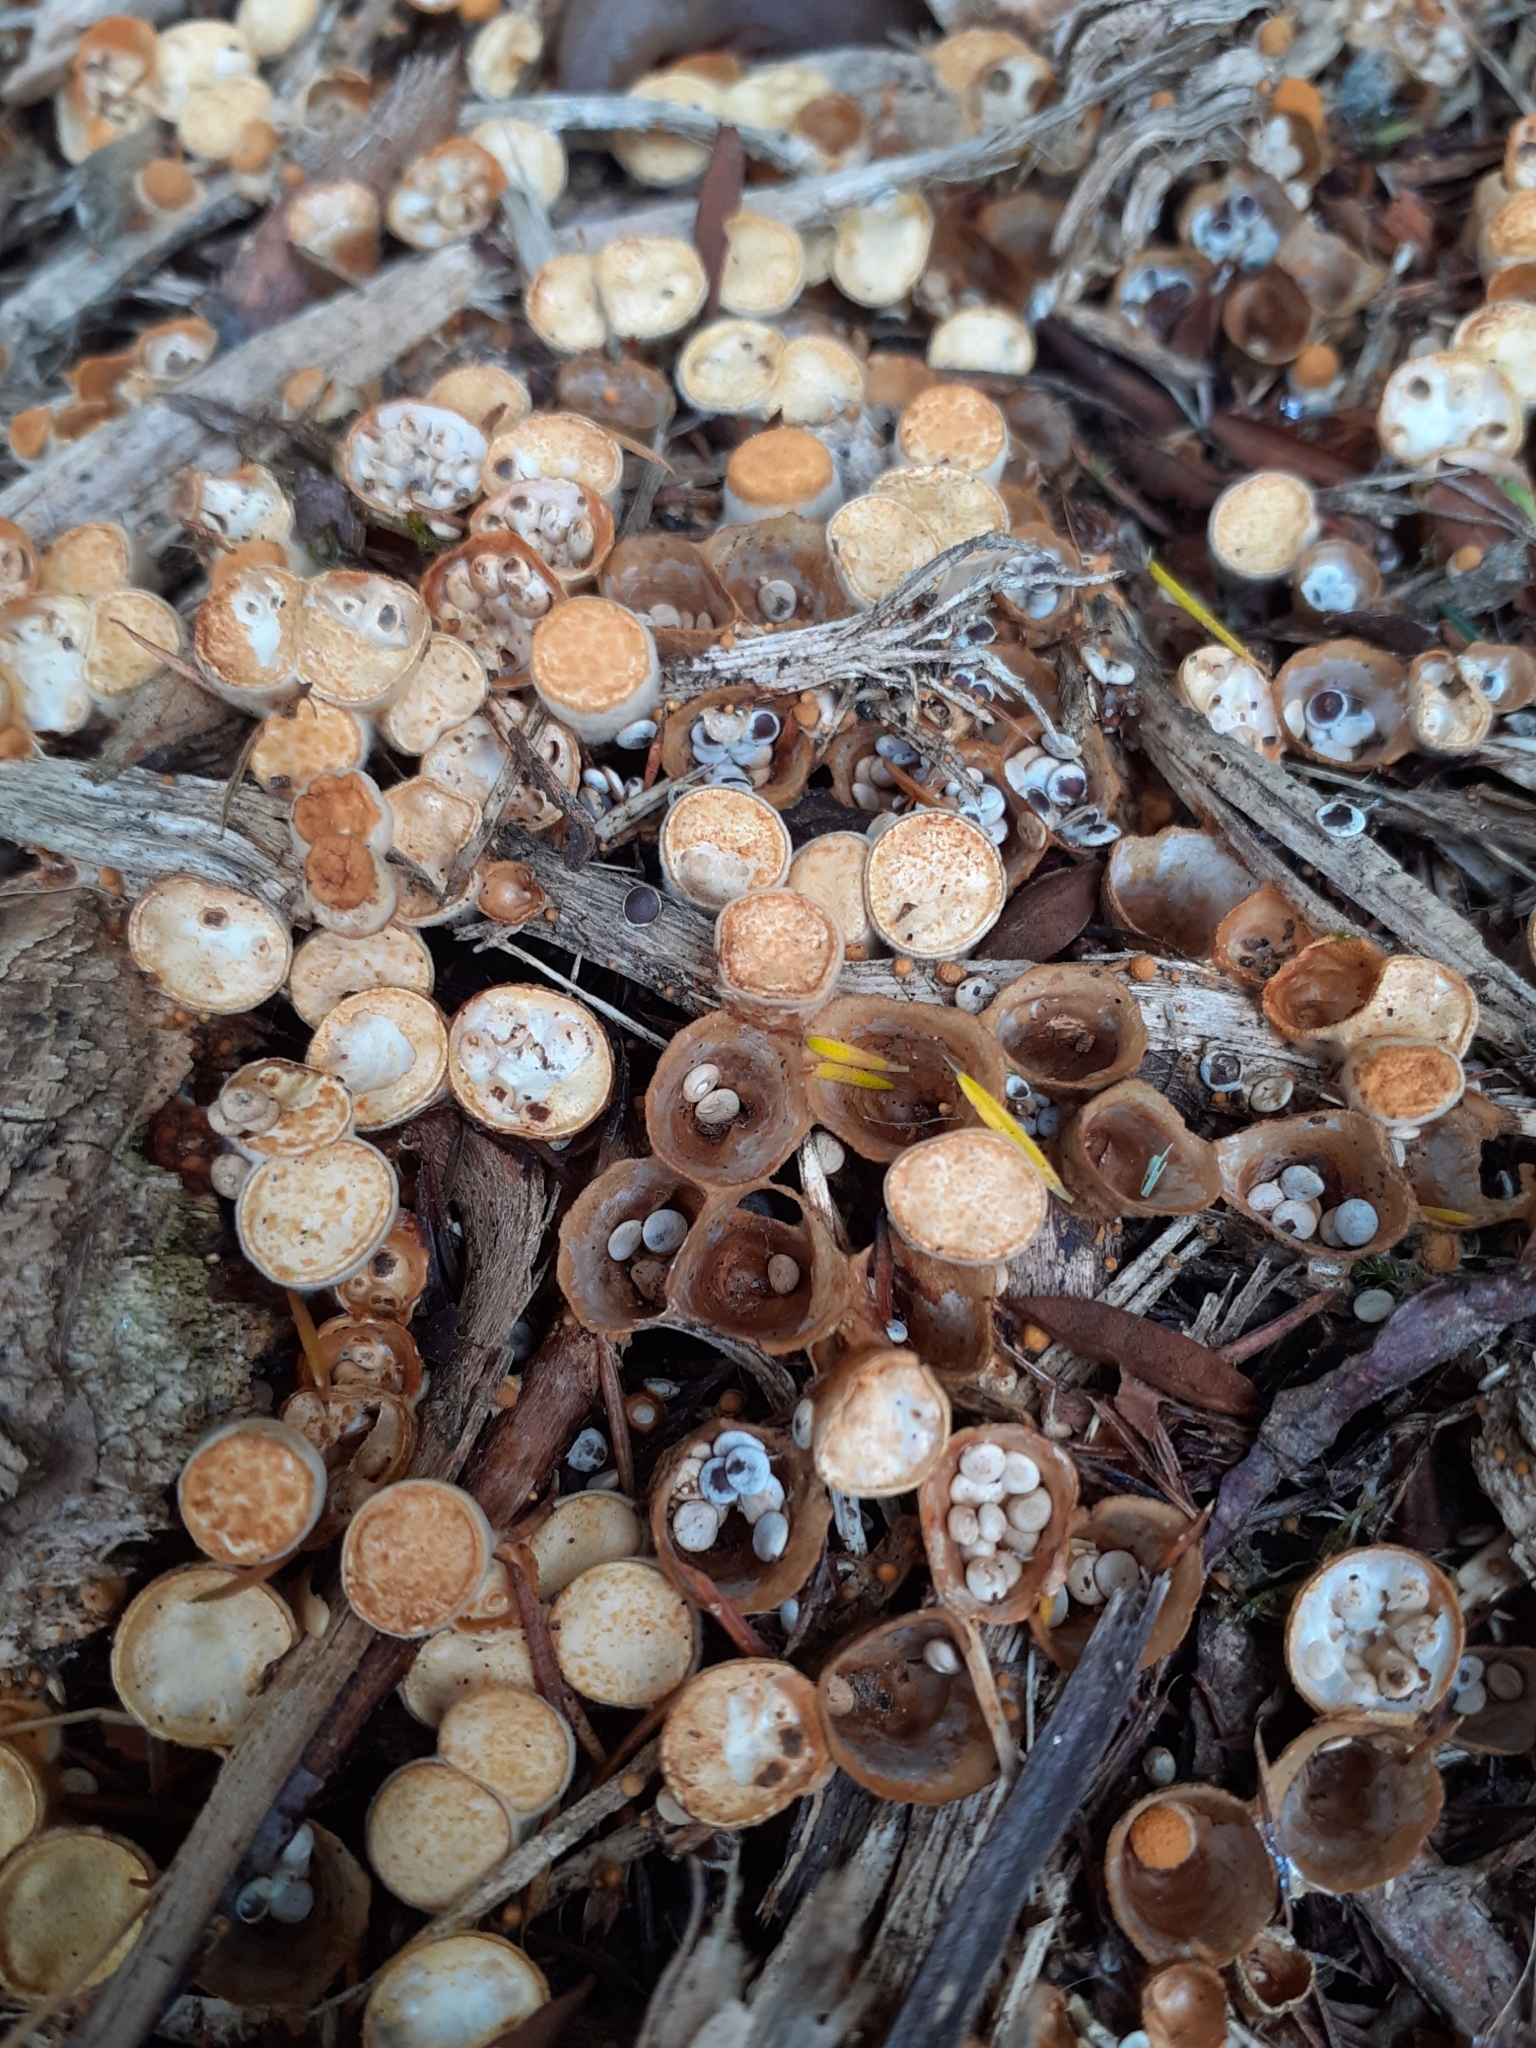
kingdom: Fungi
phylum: Basidiomycota
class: Agaricomycetes
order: Agaricales
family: Nidulariaceae
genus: Crucibulum
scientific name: Crucibulum laeve
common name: Common bird's nest
